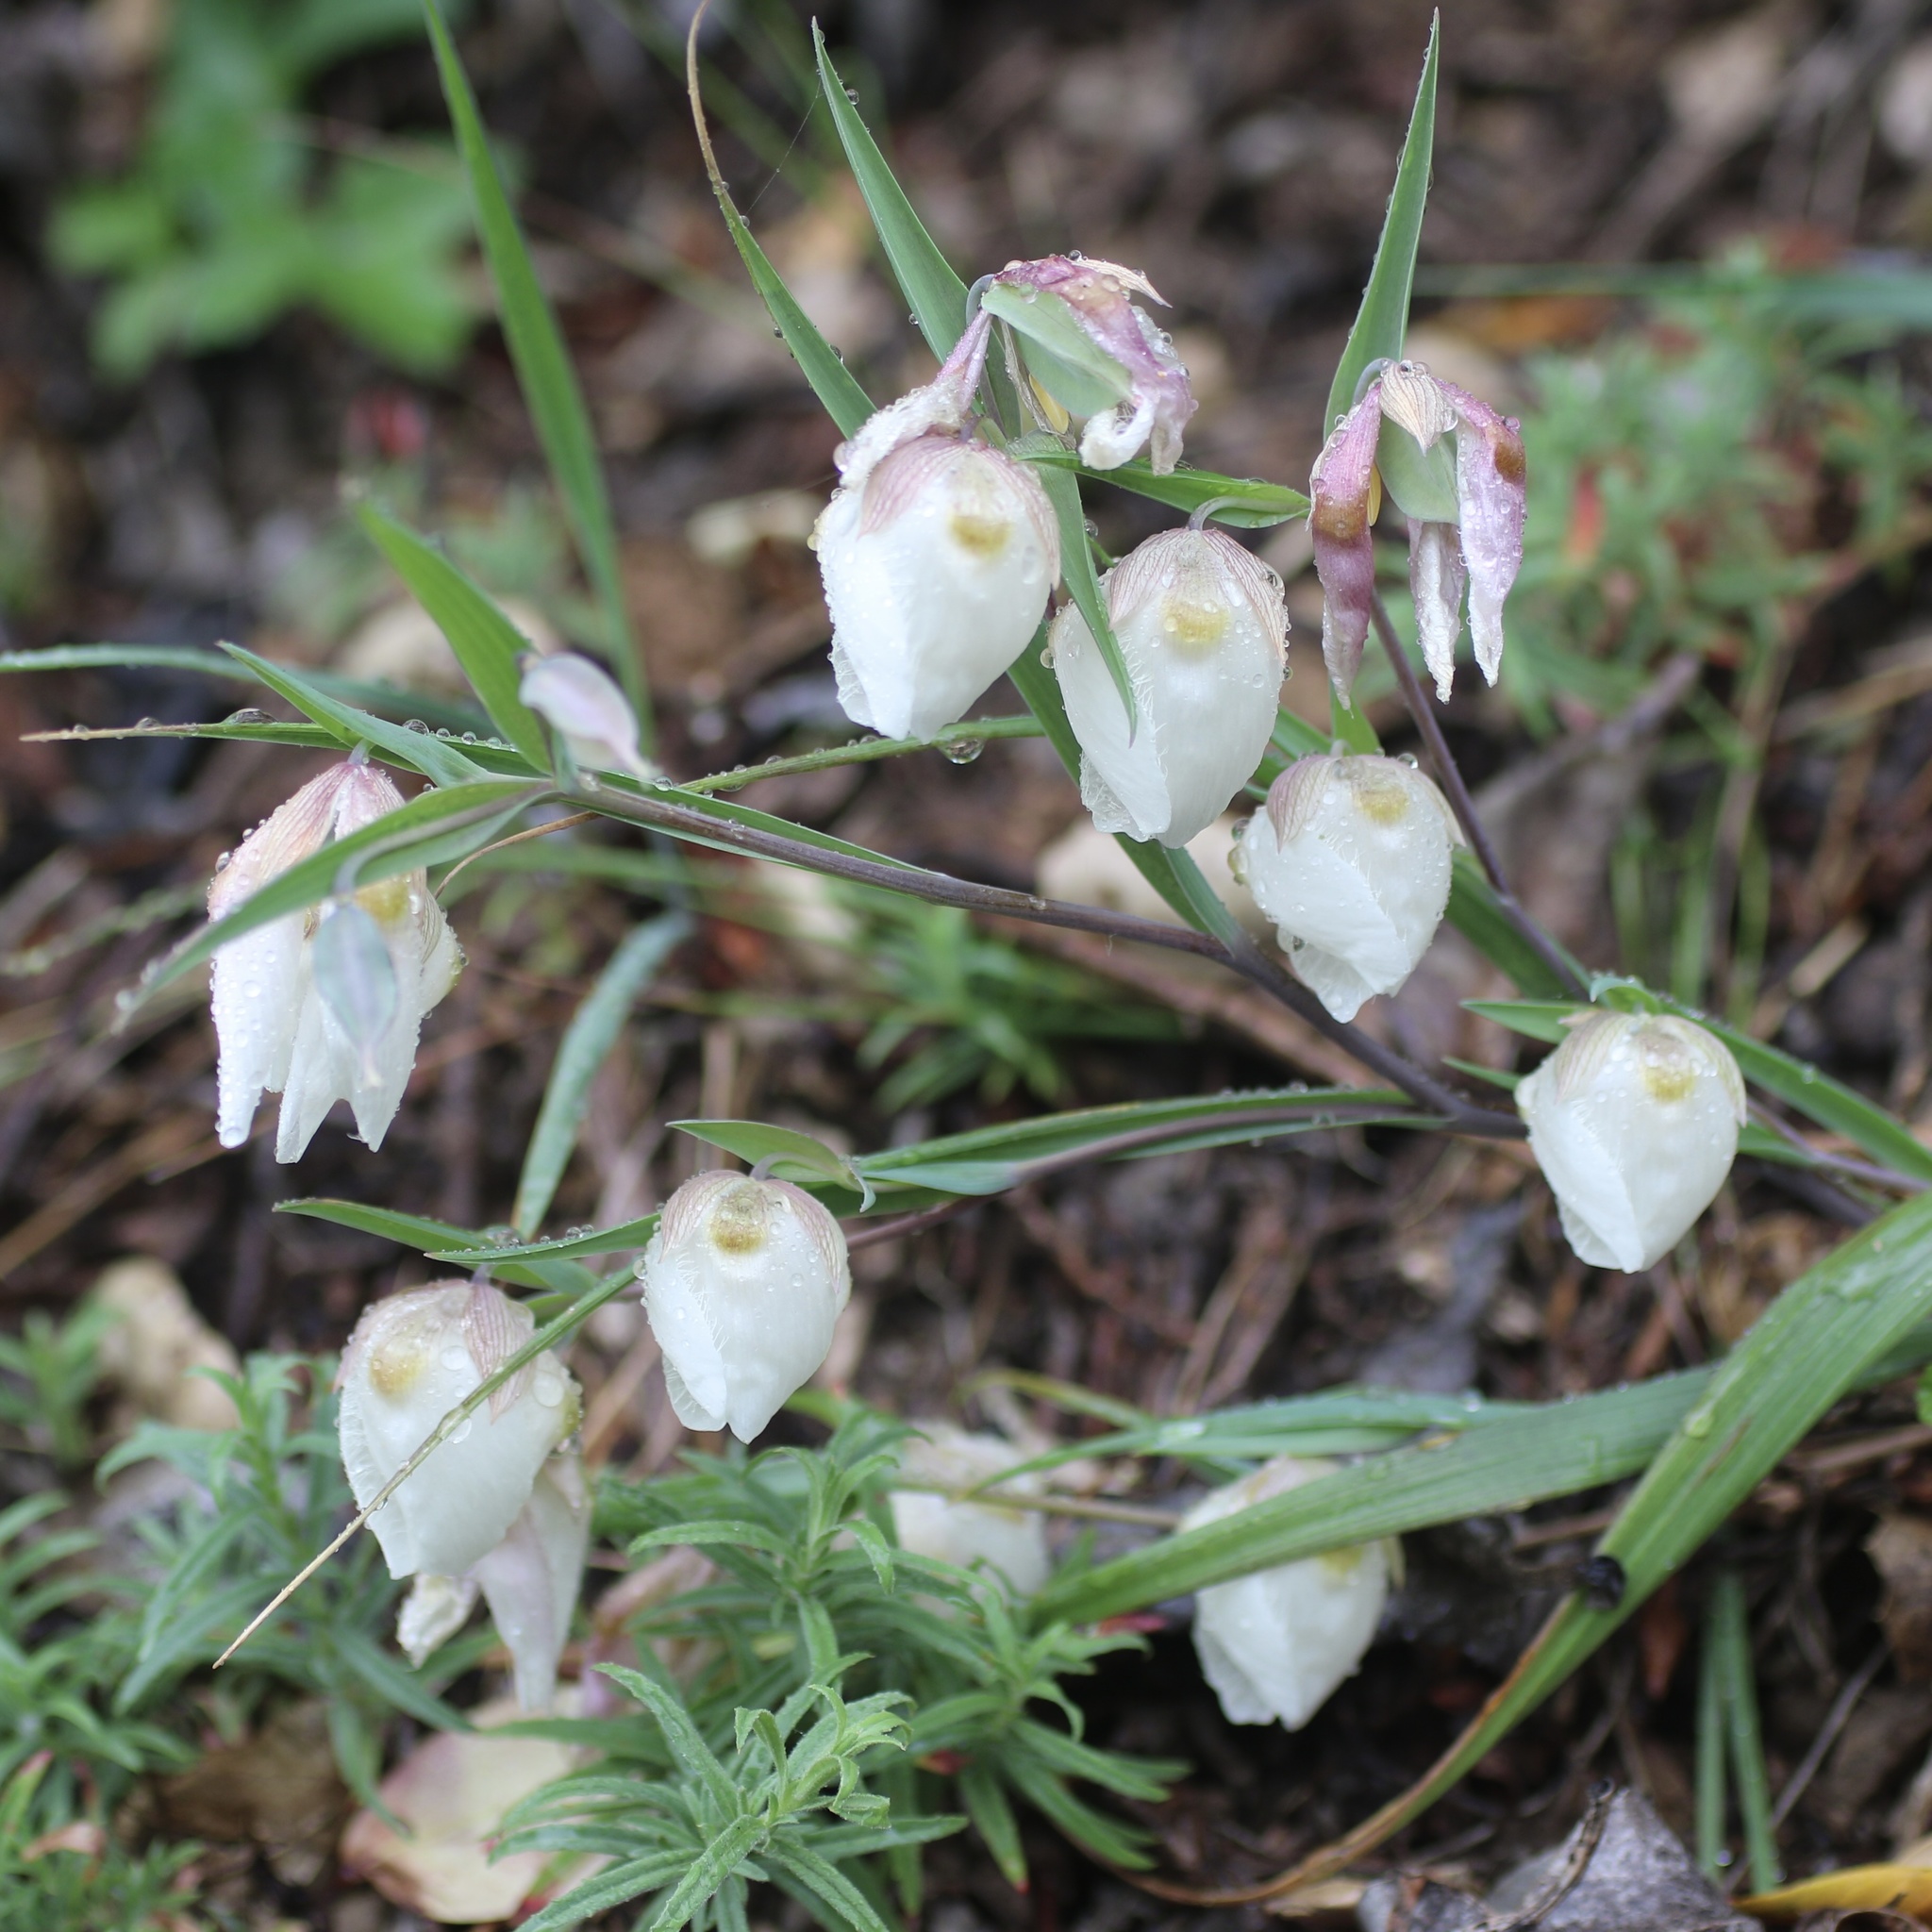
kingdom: Plantae
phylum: Tracheophyta
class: Liliopsida
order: Liliales
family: Liliaceae
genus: Calochortus
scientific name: Calochortus albus
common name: Fairy-lantern
